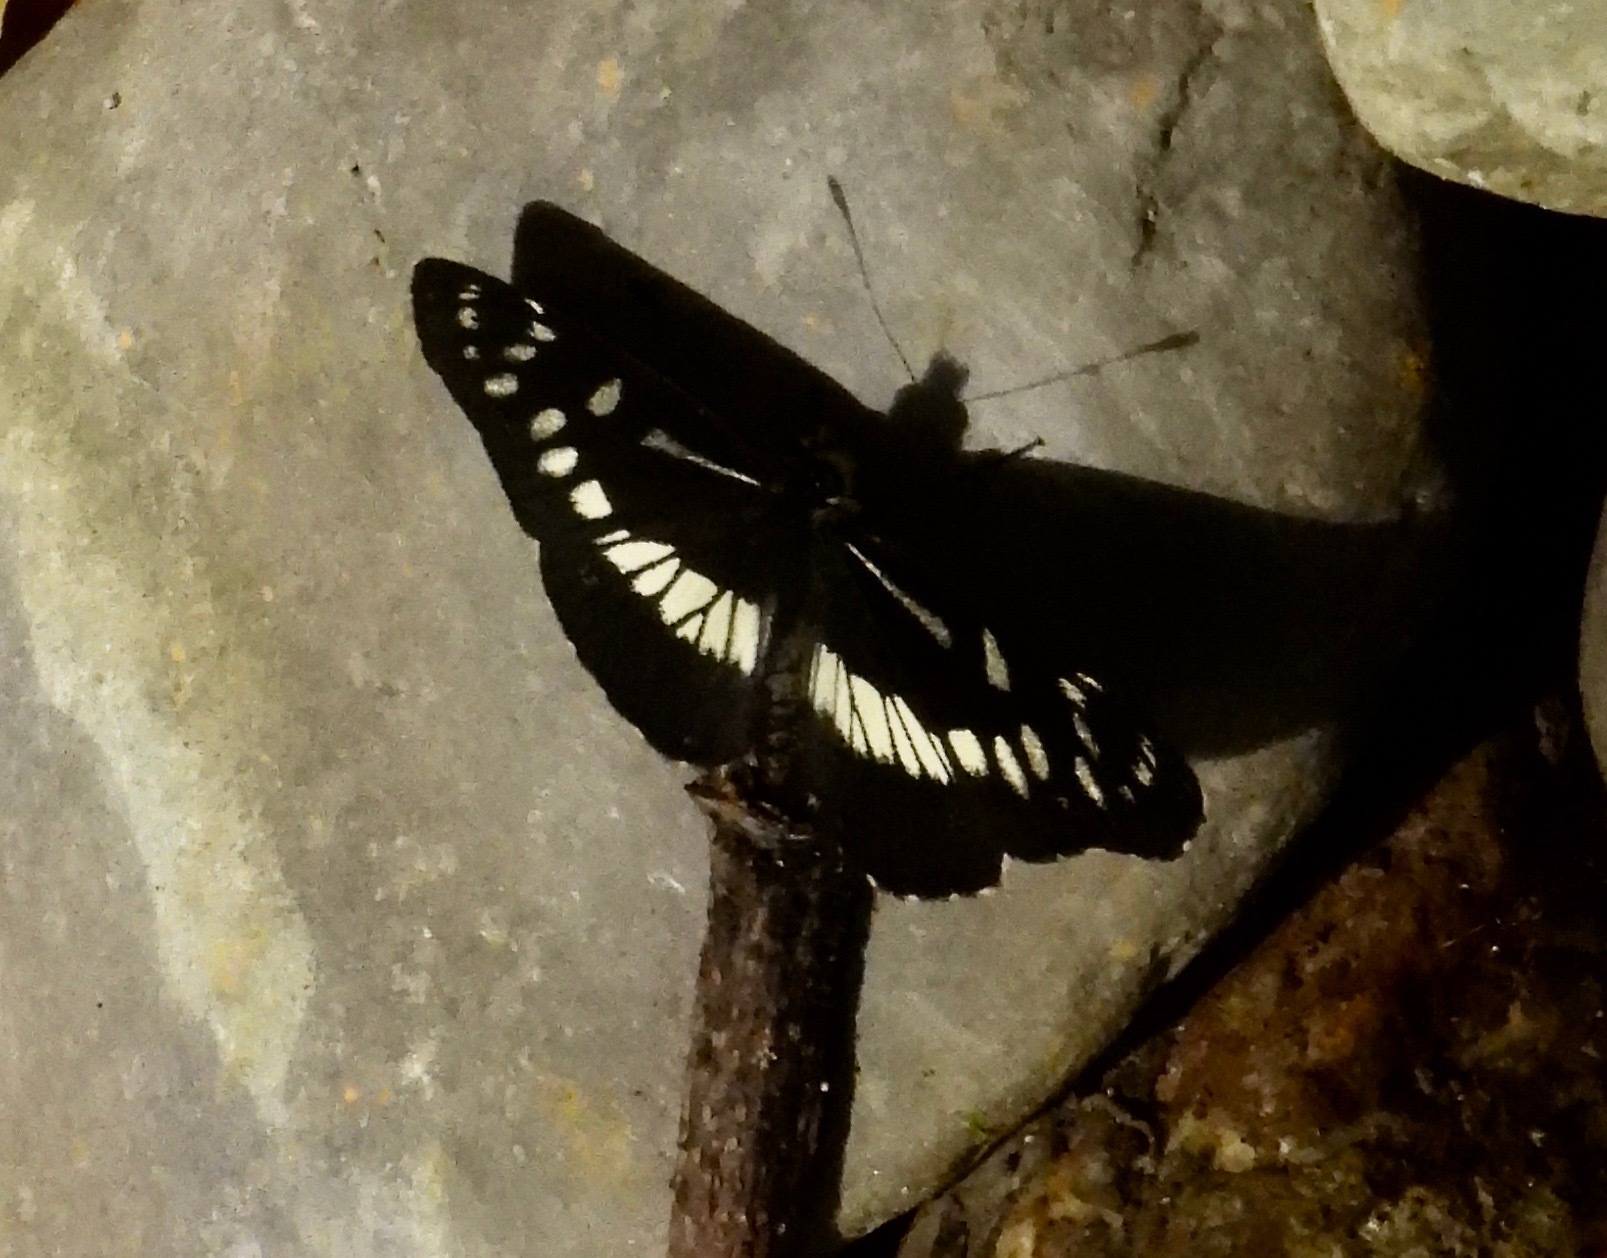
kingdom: Animalia
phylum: Arthropoda
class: Insecta
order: Lepidoptera
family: Nymphalidae
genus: Gnathotriche
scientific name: Gnathotriche exclamationis
